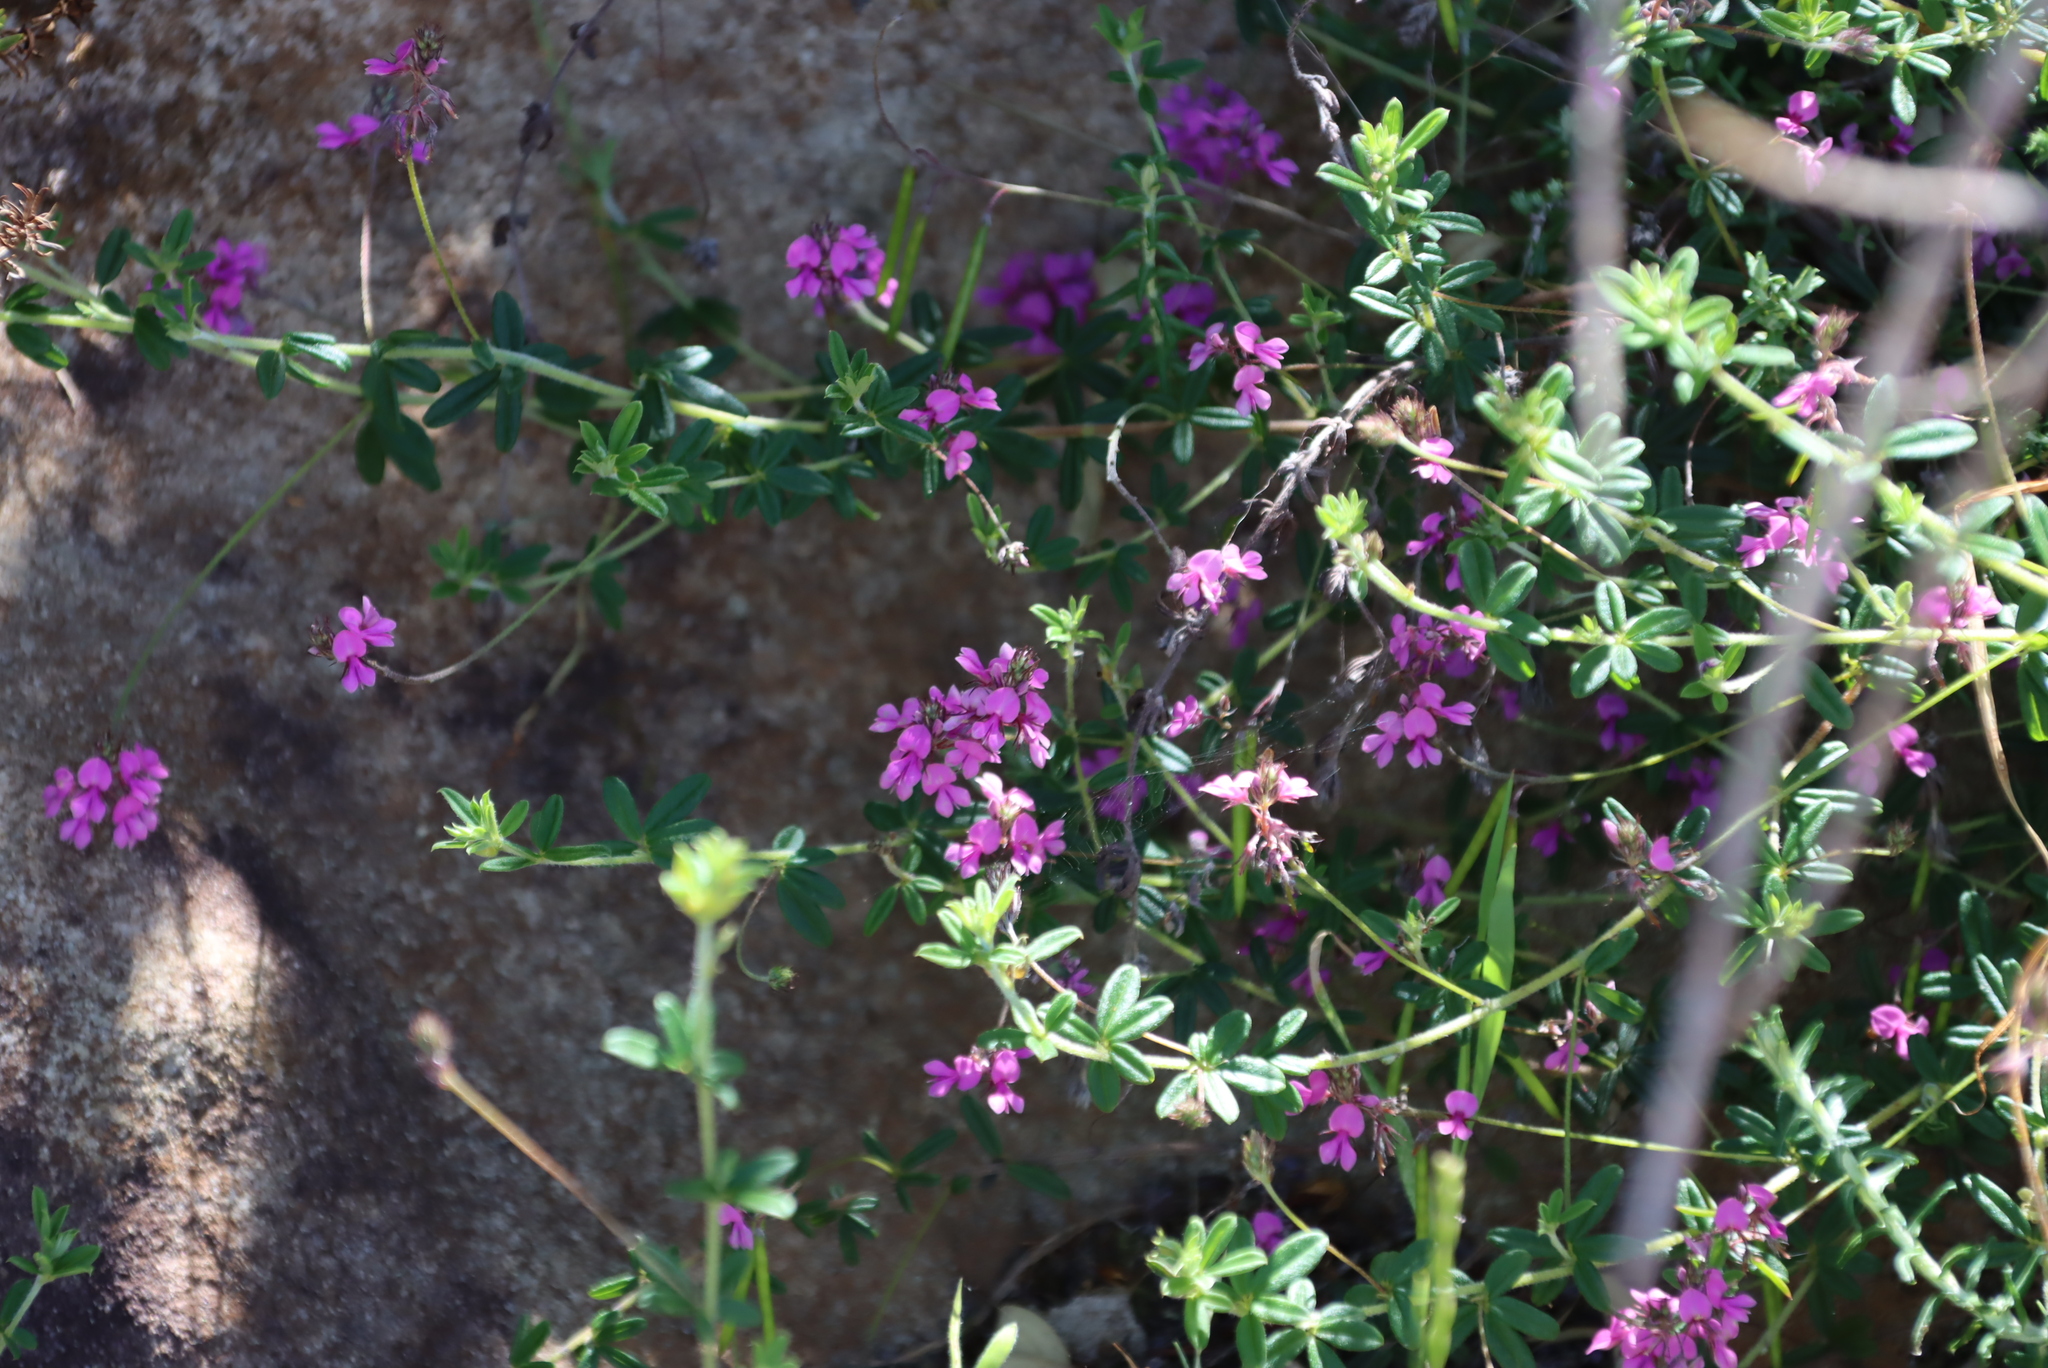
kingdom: Plantae
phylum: Tracheophyta
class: Magnoliopsida
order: Fabales
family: Fabaceae
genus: Indigofera
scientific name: Indigofera filiformis
